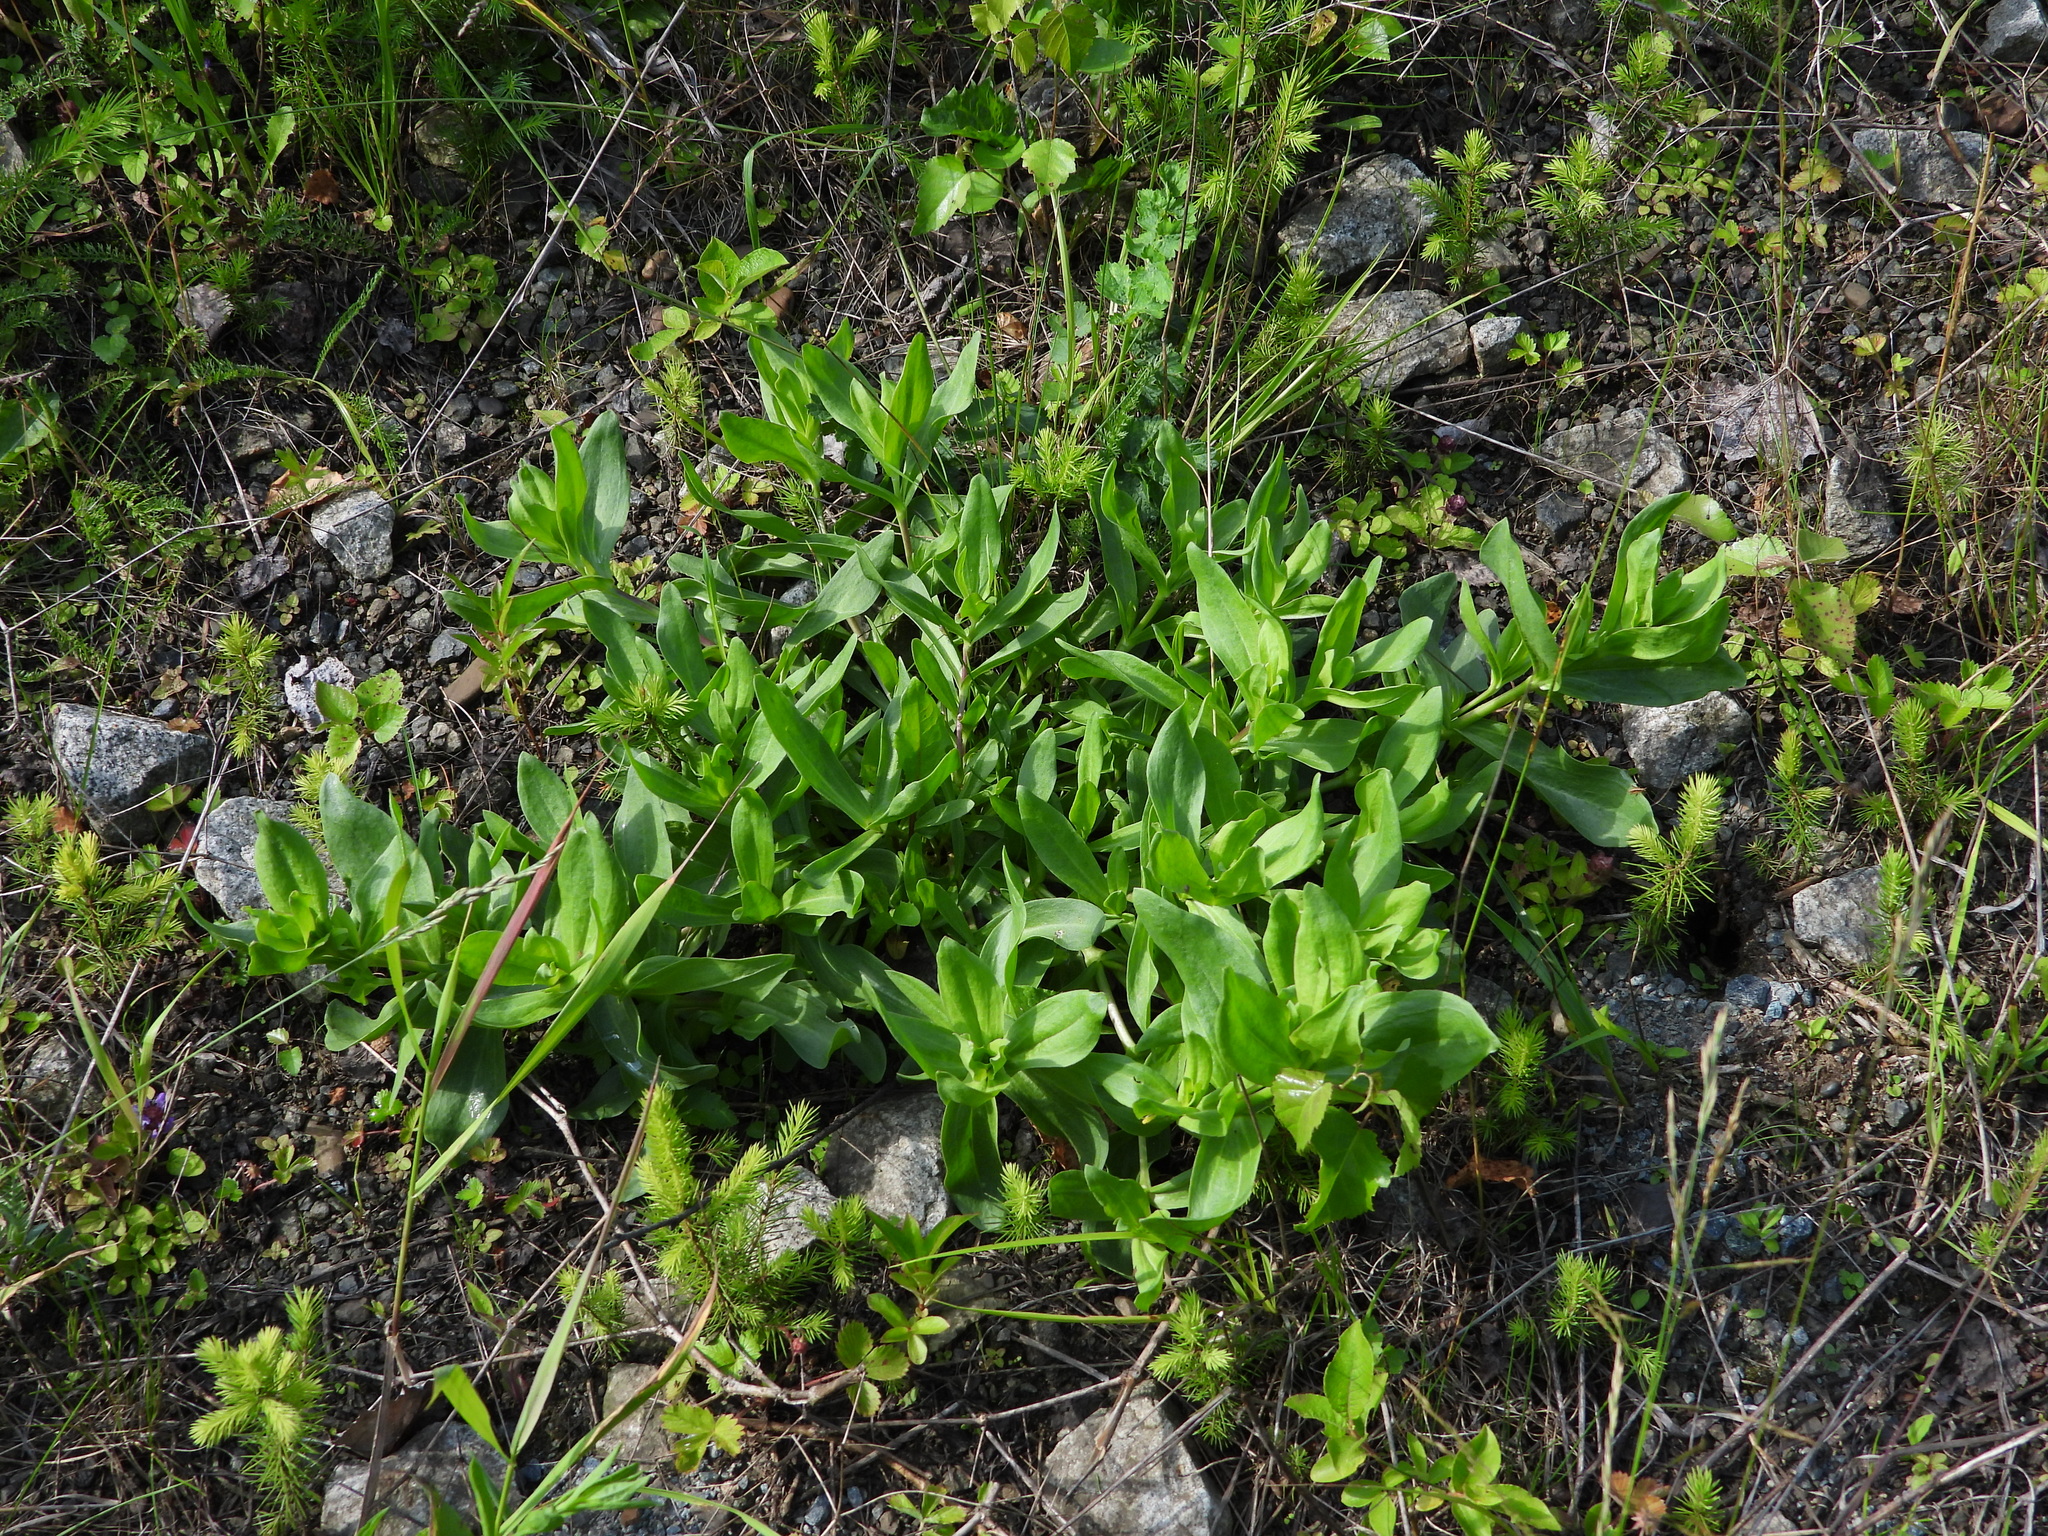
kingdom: Plantae
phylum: Tracheophyta
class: Magnoliopsida
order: Caryophyllales
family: Caryophyllaceae
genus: Gypsophila
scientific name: Gypsophila perfoliata
